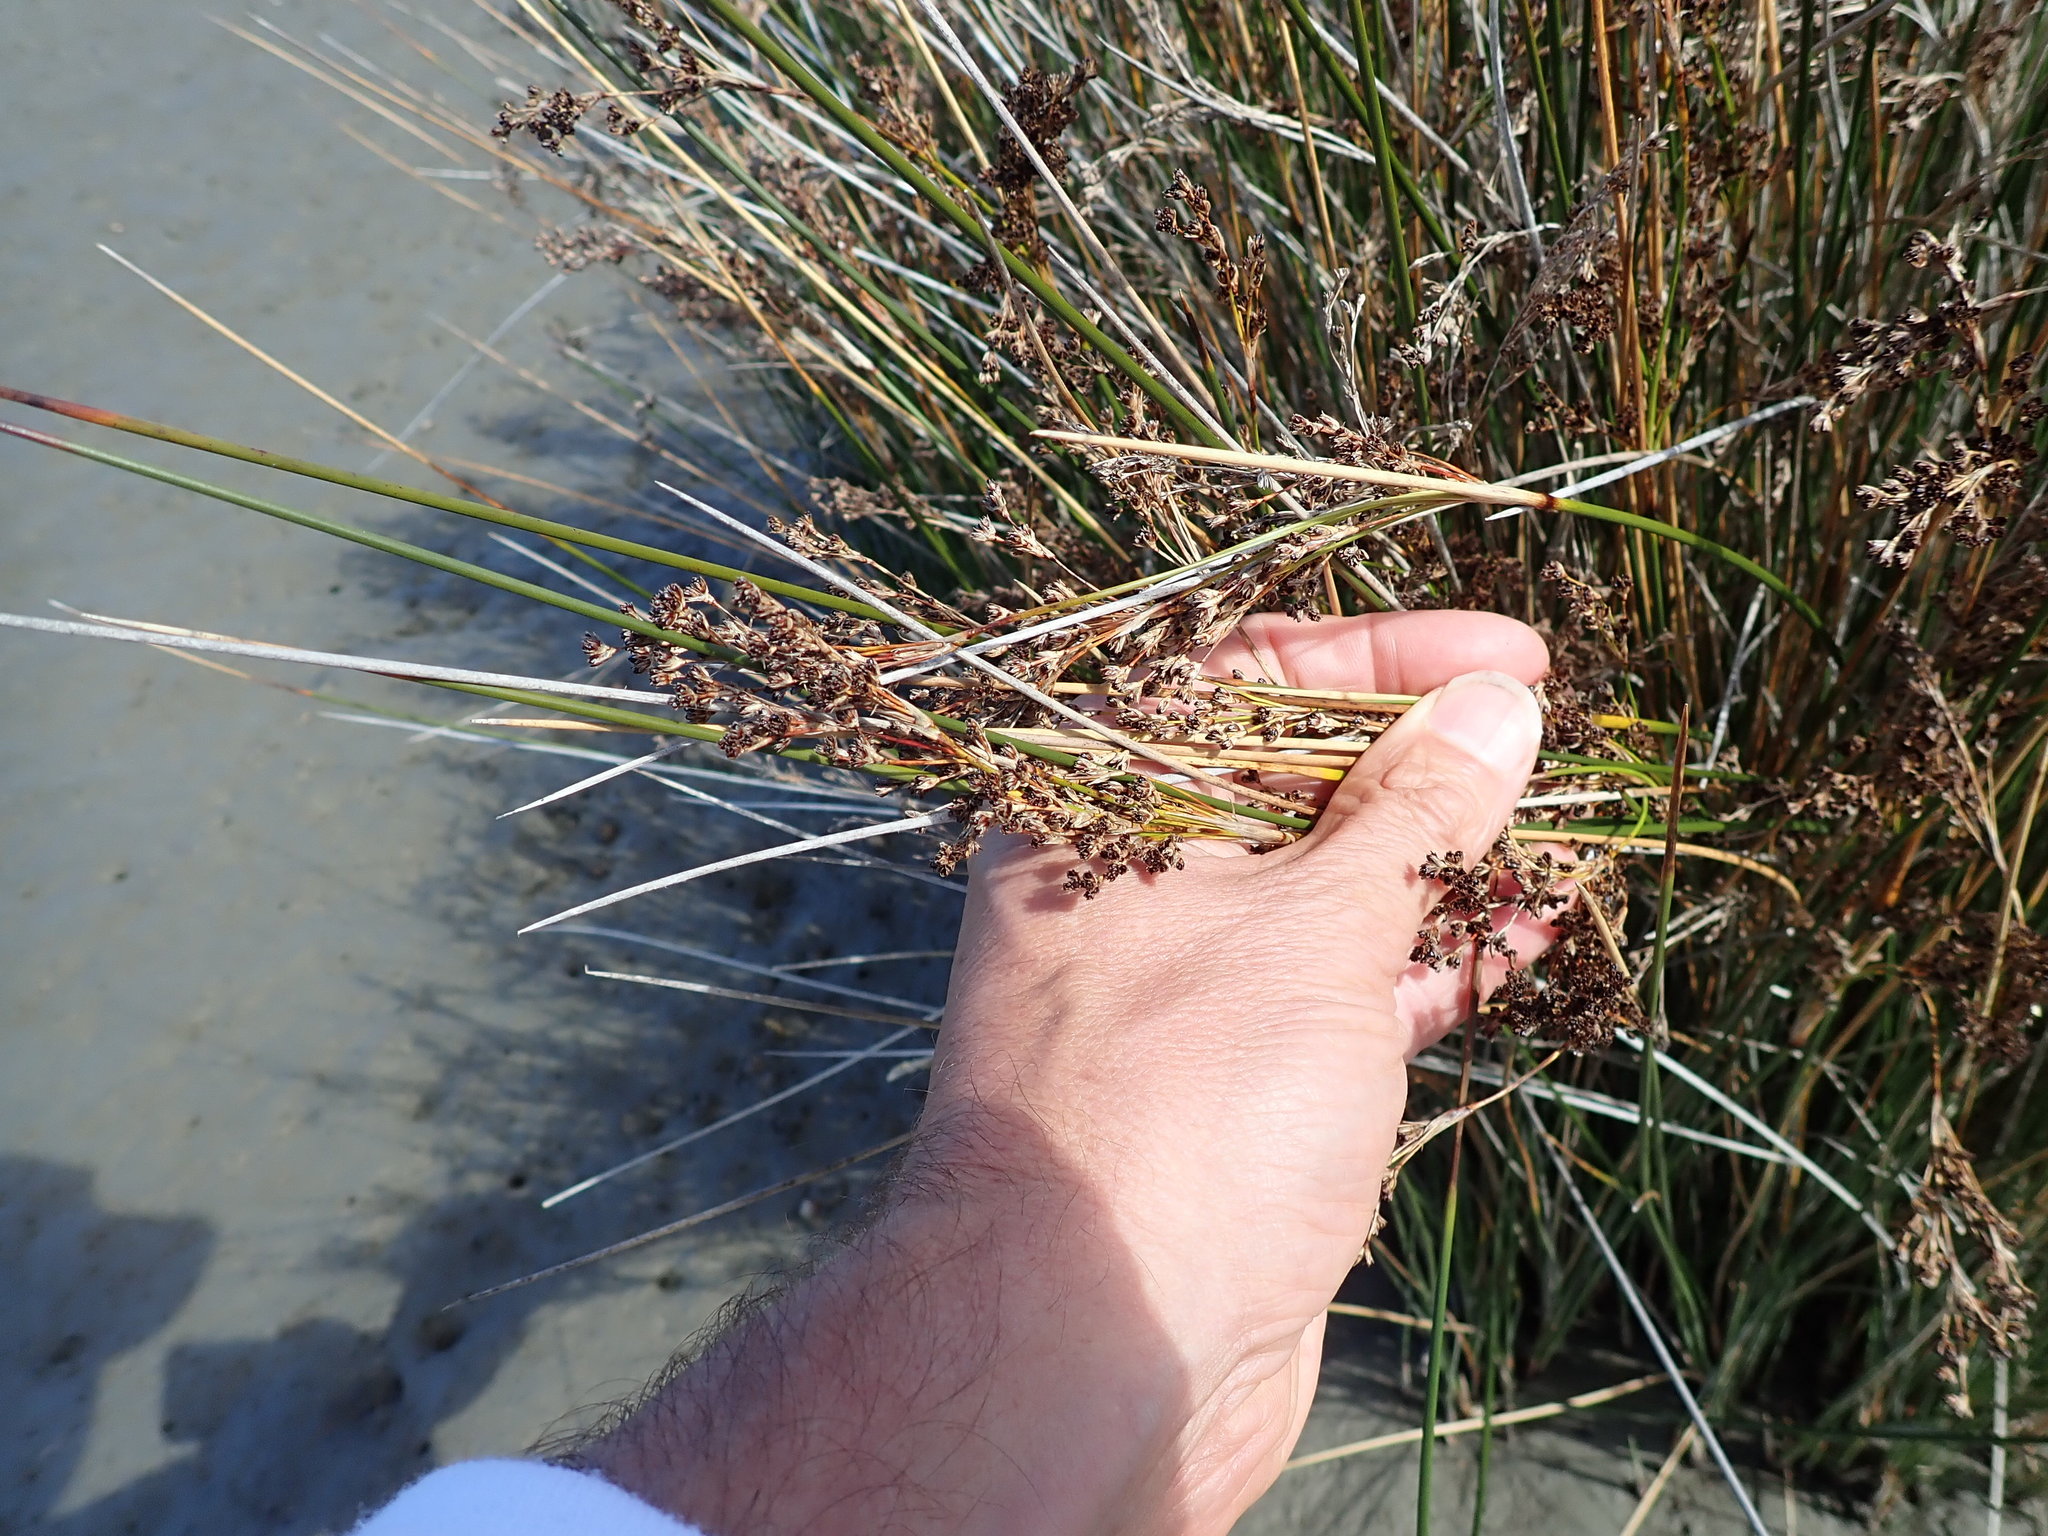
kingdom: Plantae
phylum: Tracheophyta
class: Liliopsida
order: Poales
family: Juncaceae
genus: Juncus
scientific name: Juncus kraussii
